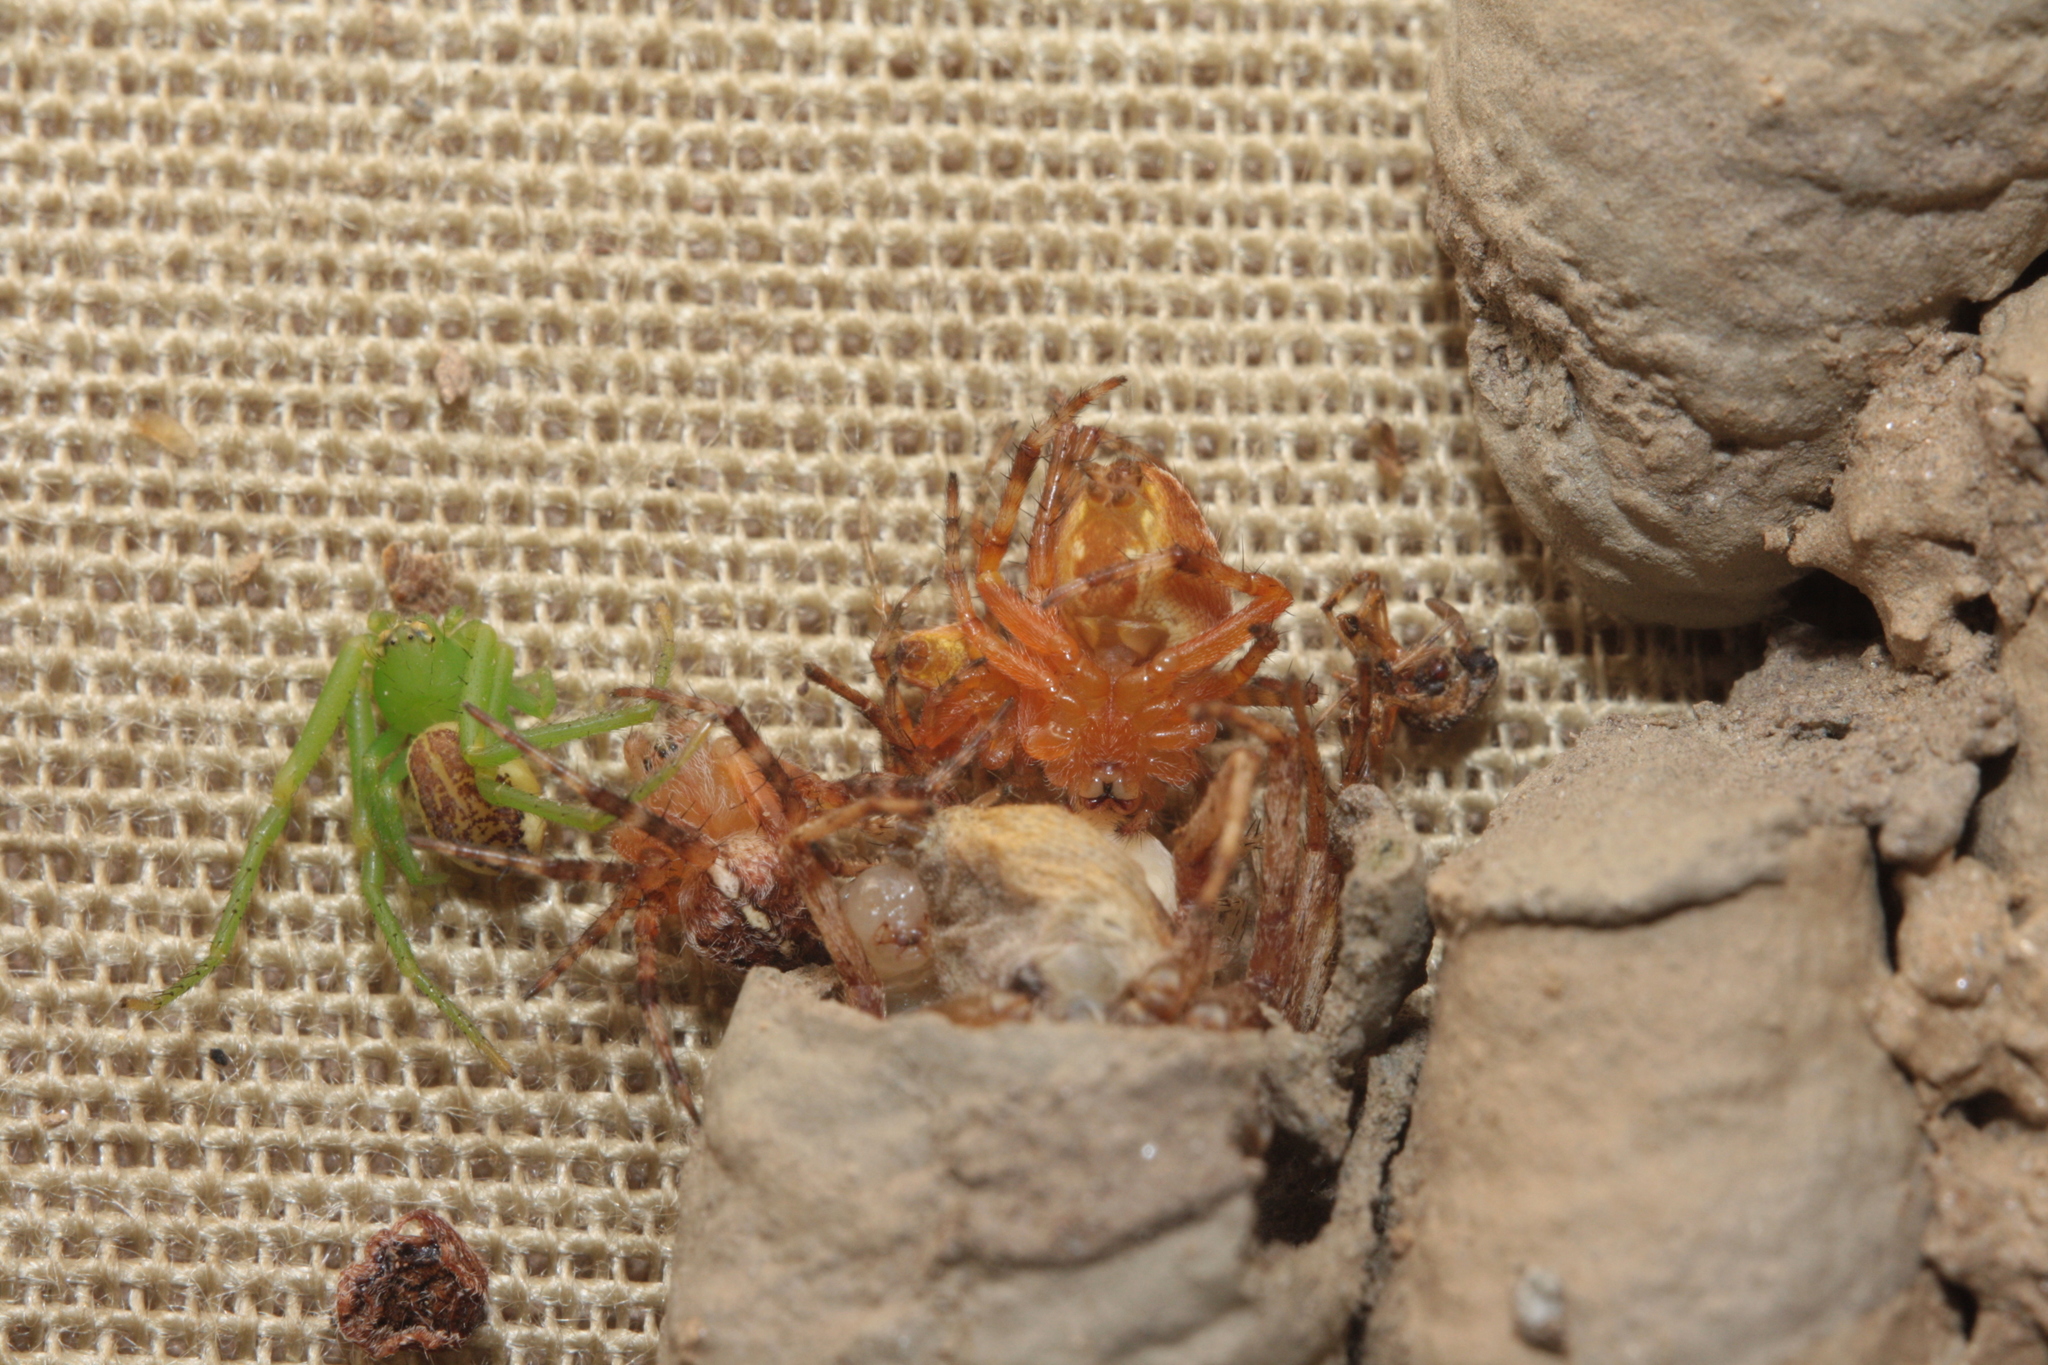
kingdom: Animalia
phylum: Arthropoda
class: Arachnida
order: Araneae
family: Thomisidae
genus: Diaea
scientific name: Diaea dorsata
